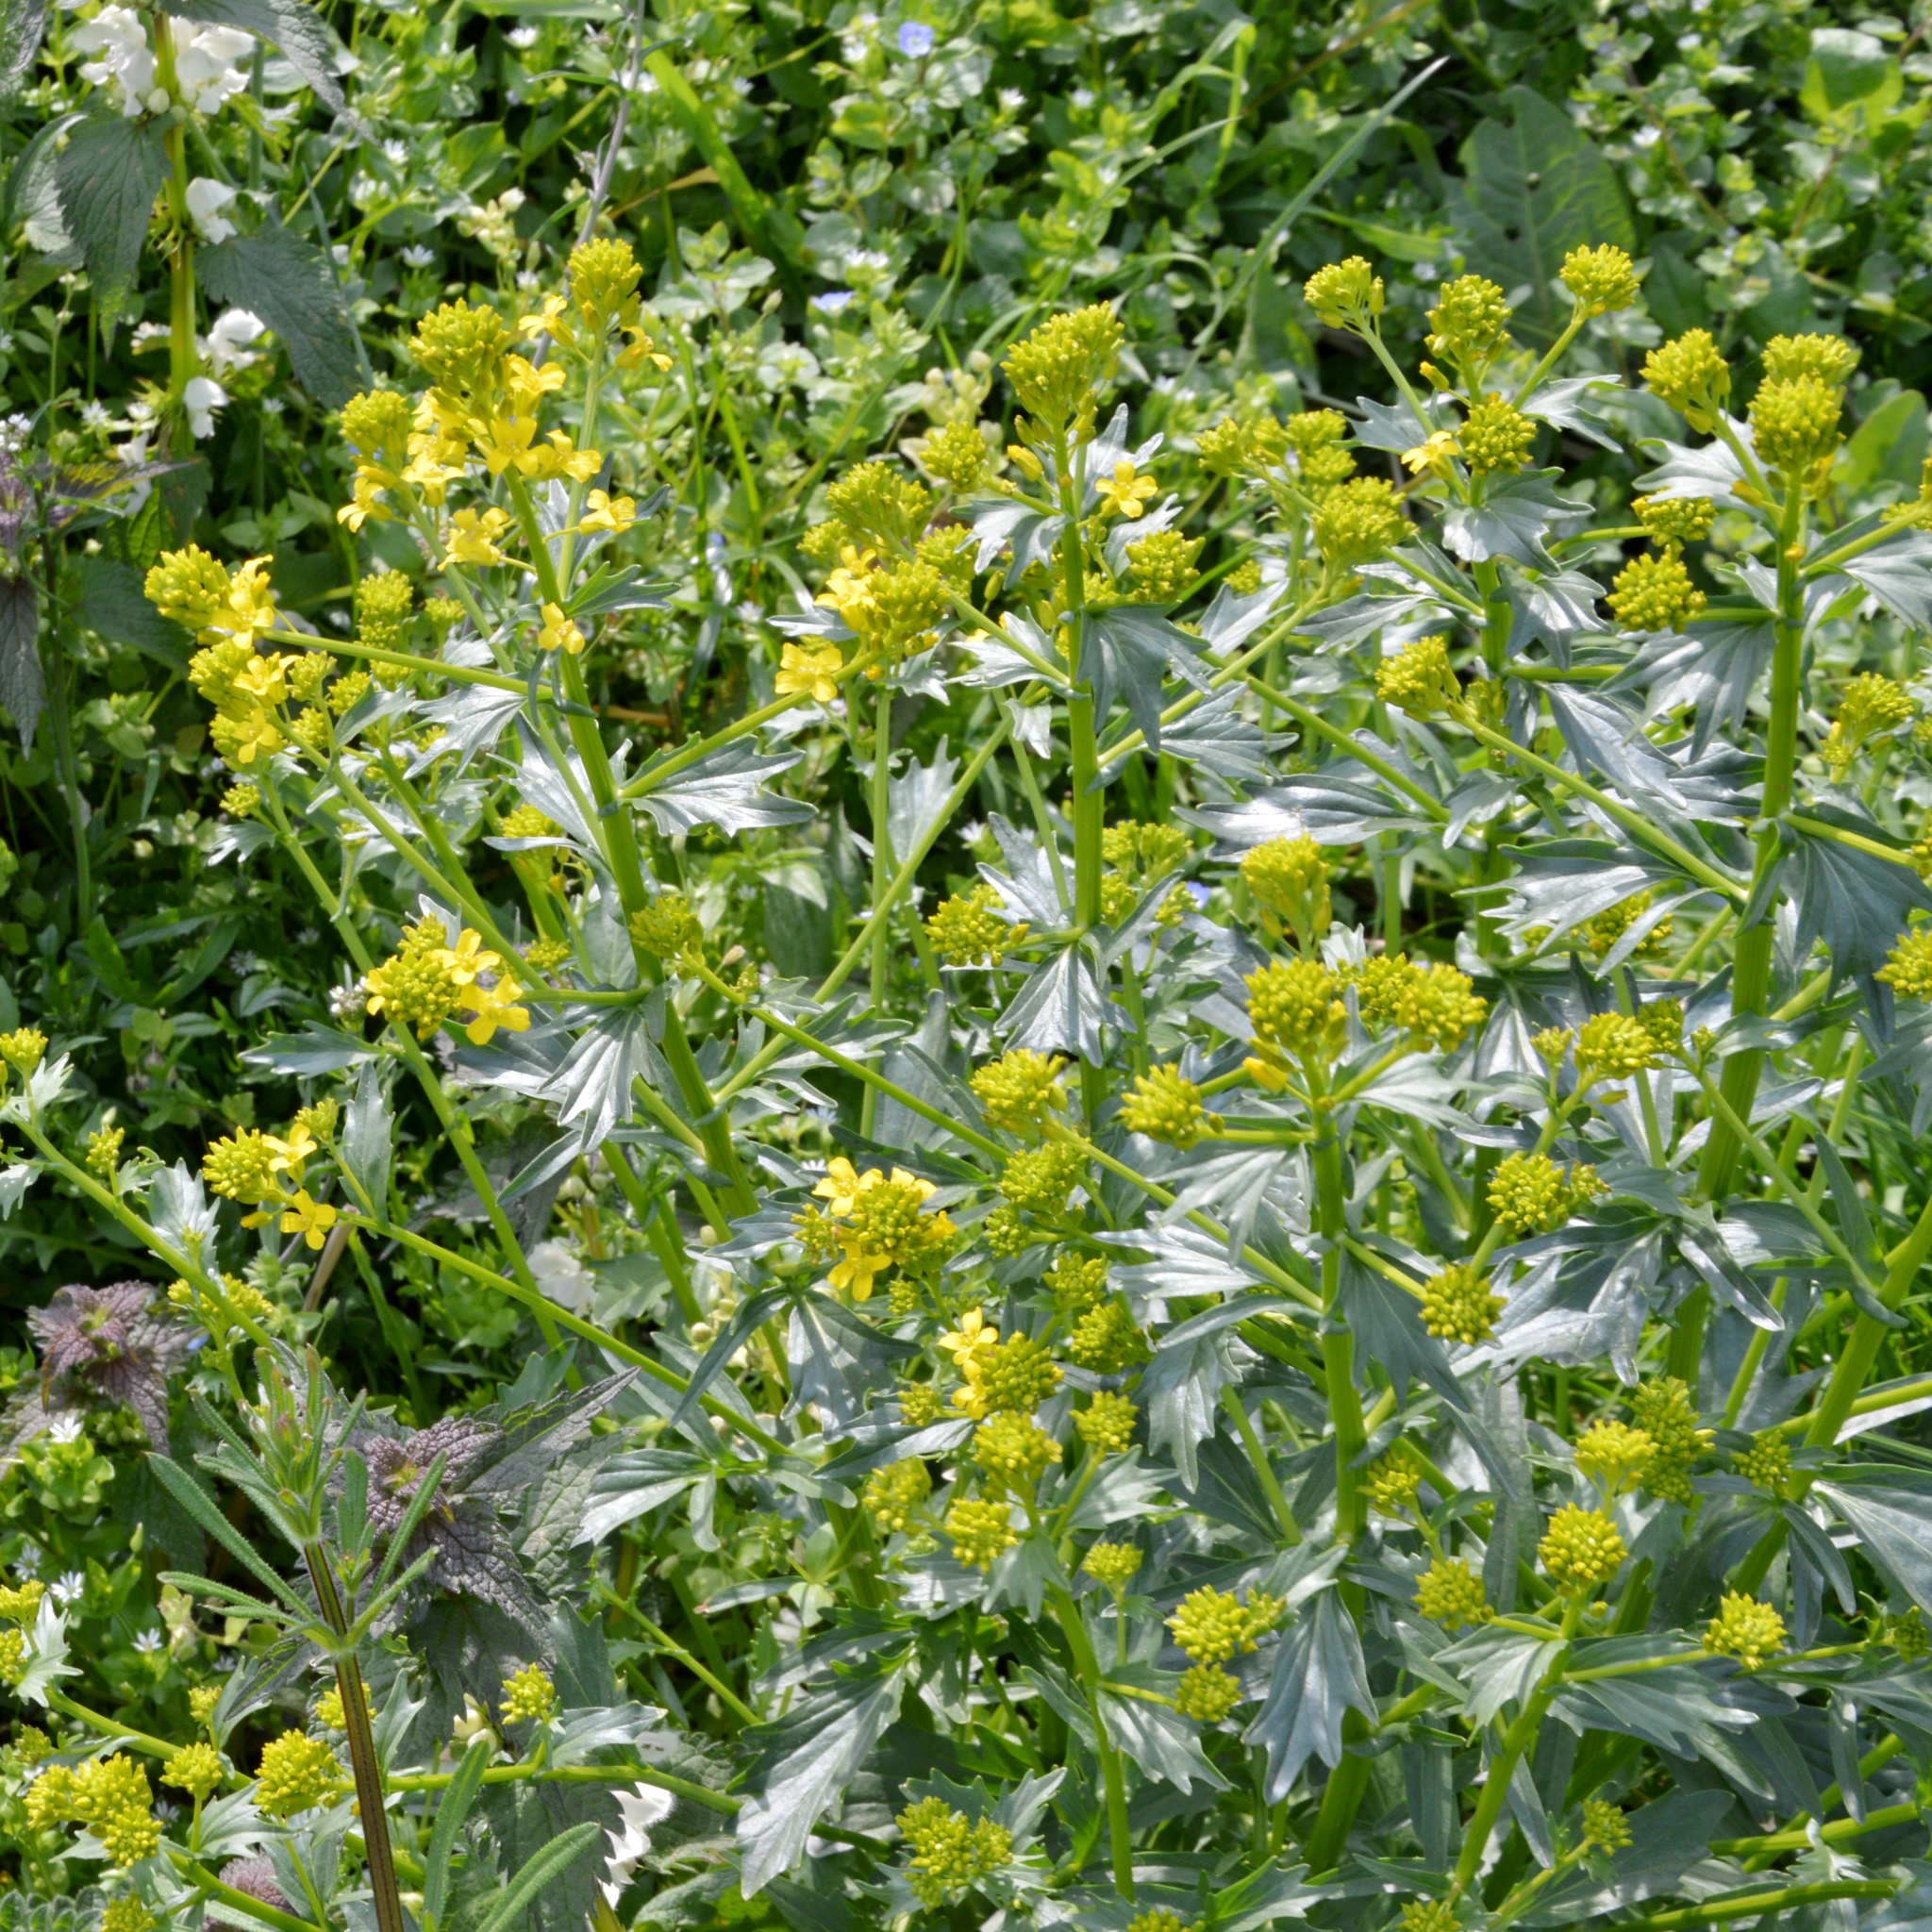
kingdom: Plantae
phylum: Tracheophyta
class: Magnoliopsida
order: Brassicales
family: Brassicaceae
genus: Barbarea
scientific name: Barbarea vulgaris
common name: Cressy-greens
